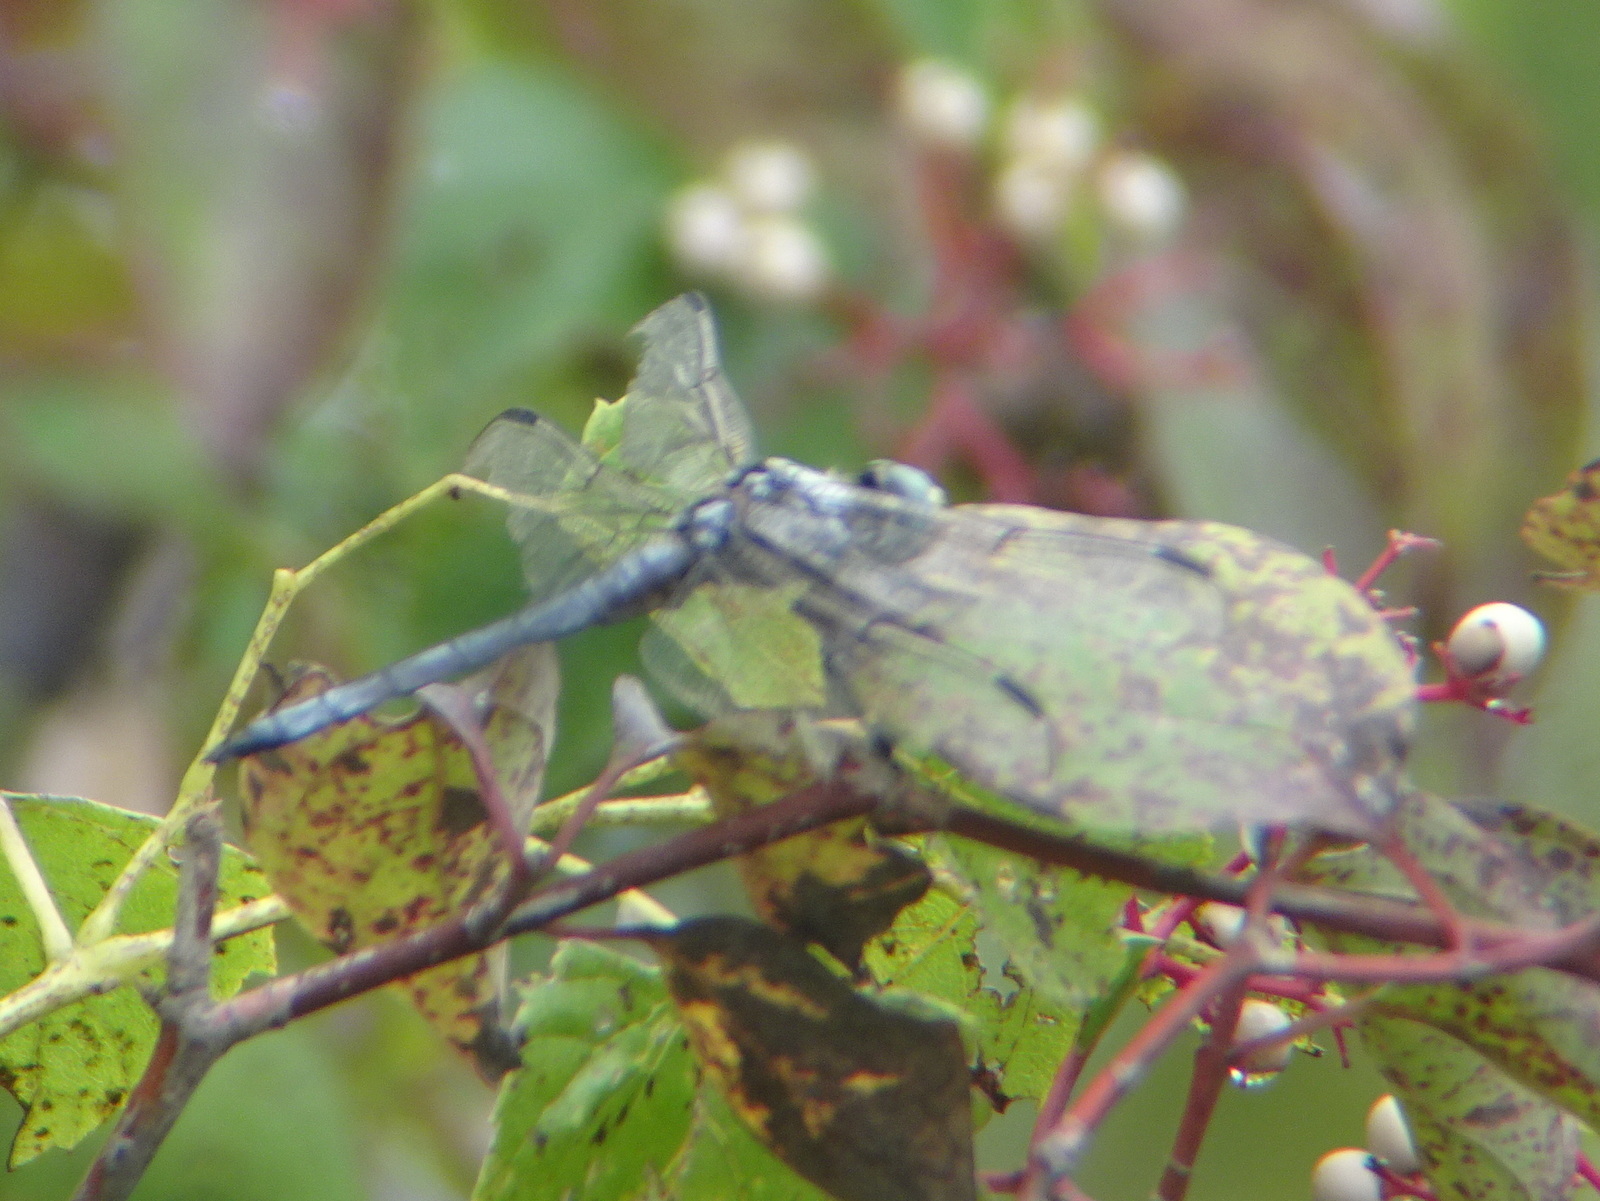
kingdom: Animalia
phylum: Arthropoda
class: Insecta
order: Odonata
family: Libellulidae
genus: Libellula
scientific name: Libellula vibrans
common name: Great blue skimmer
